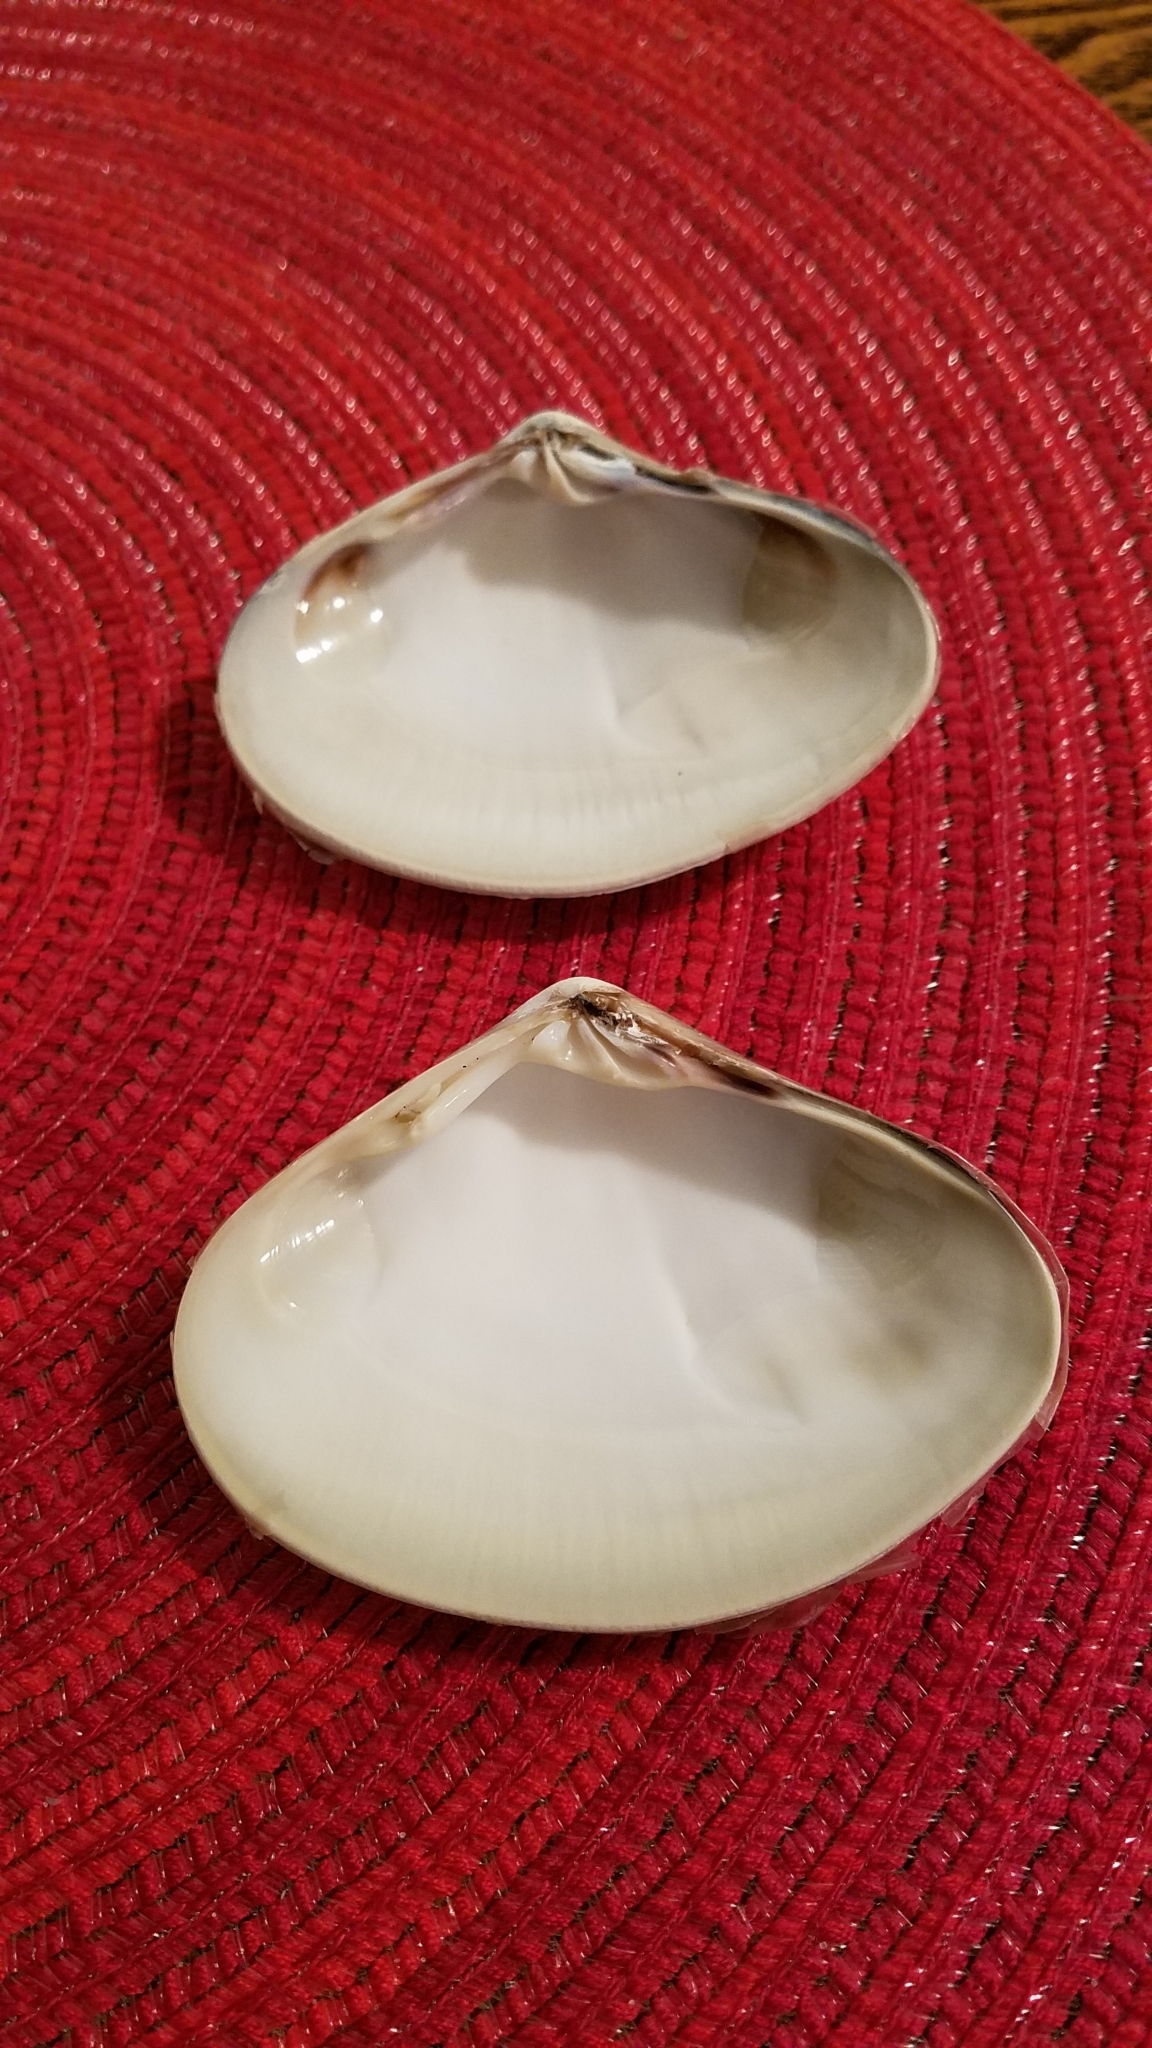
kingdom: Animalia
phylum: Mollusca
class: Bivalvia
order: Venerida
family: Veneridae
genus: Tivela
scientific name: Tivela stultorum
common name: Pismo clam
